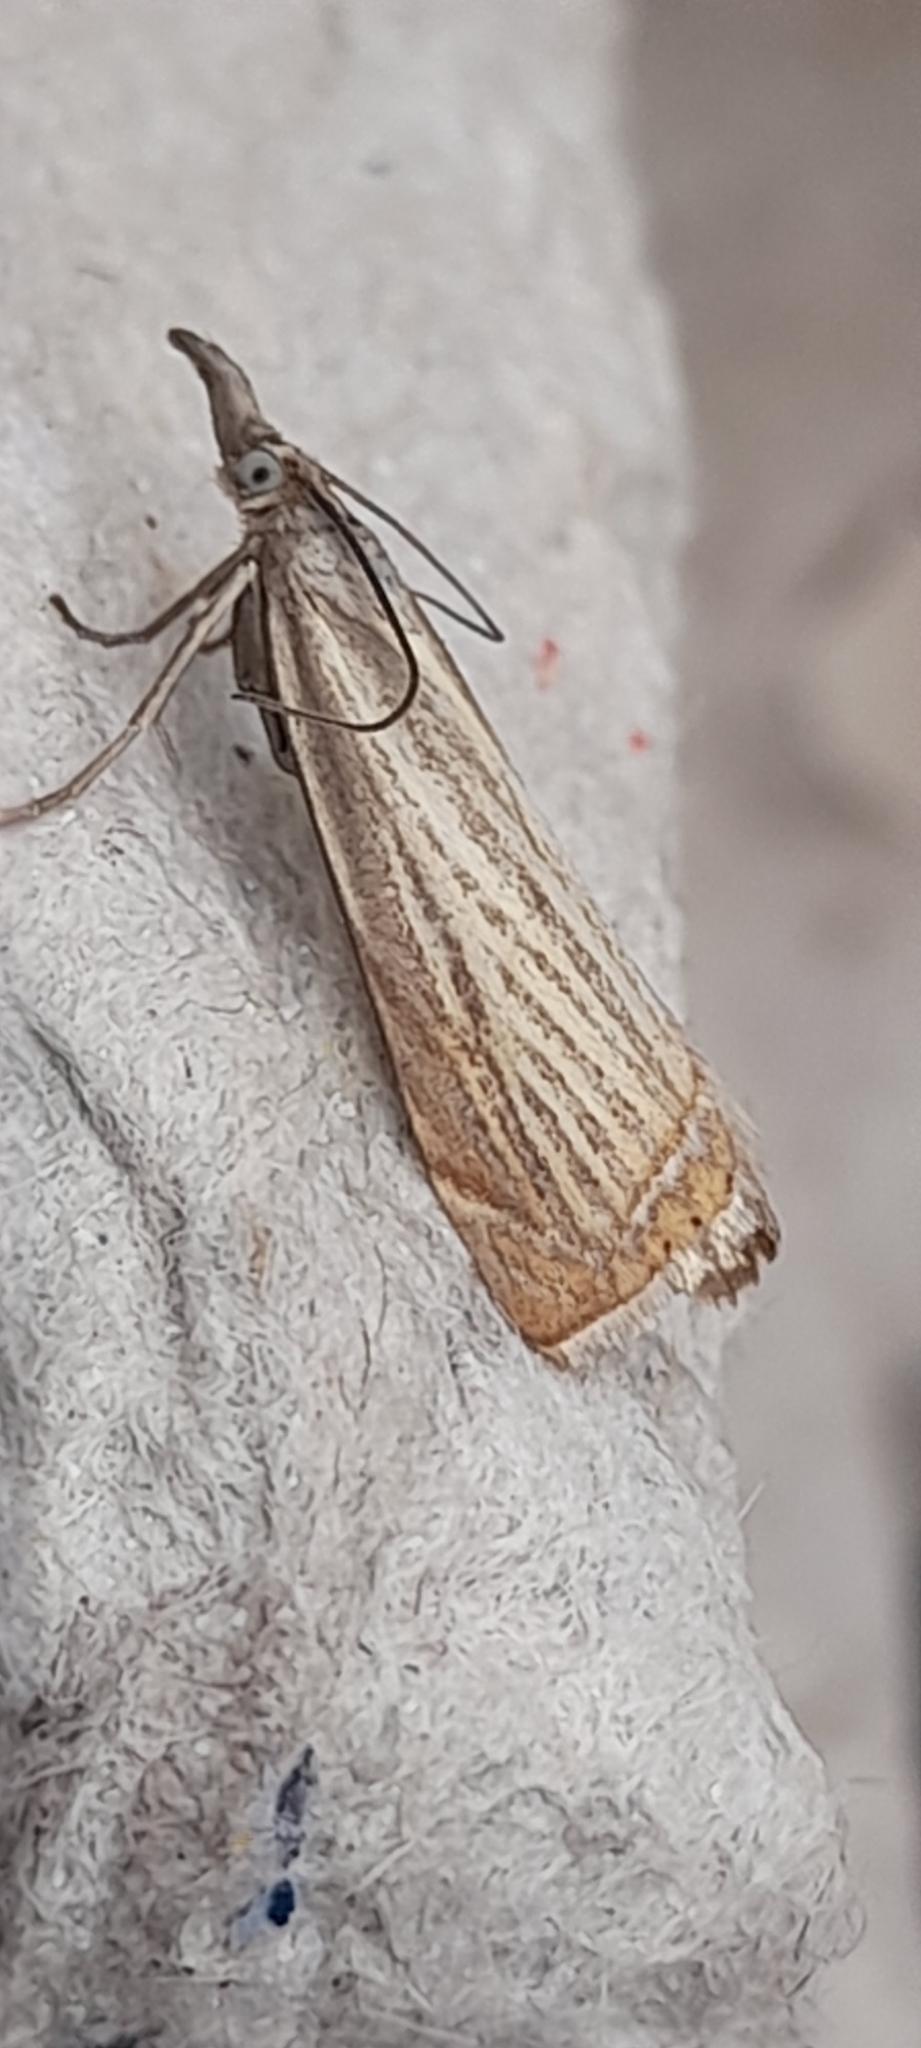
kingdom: Animalia
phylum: Arthropoda
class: Insecta
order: Lepidoptera
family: Crambidae
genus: Chrysoteuchia
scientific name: Chrysoteuchia culmella
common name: Garden grass-veneer
